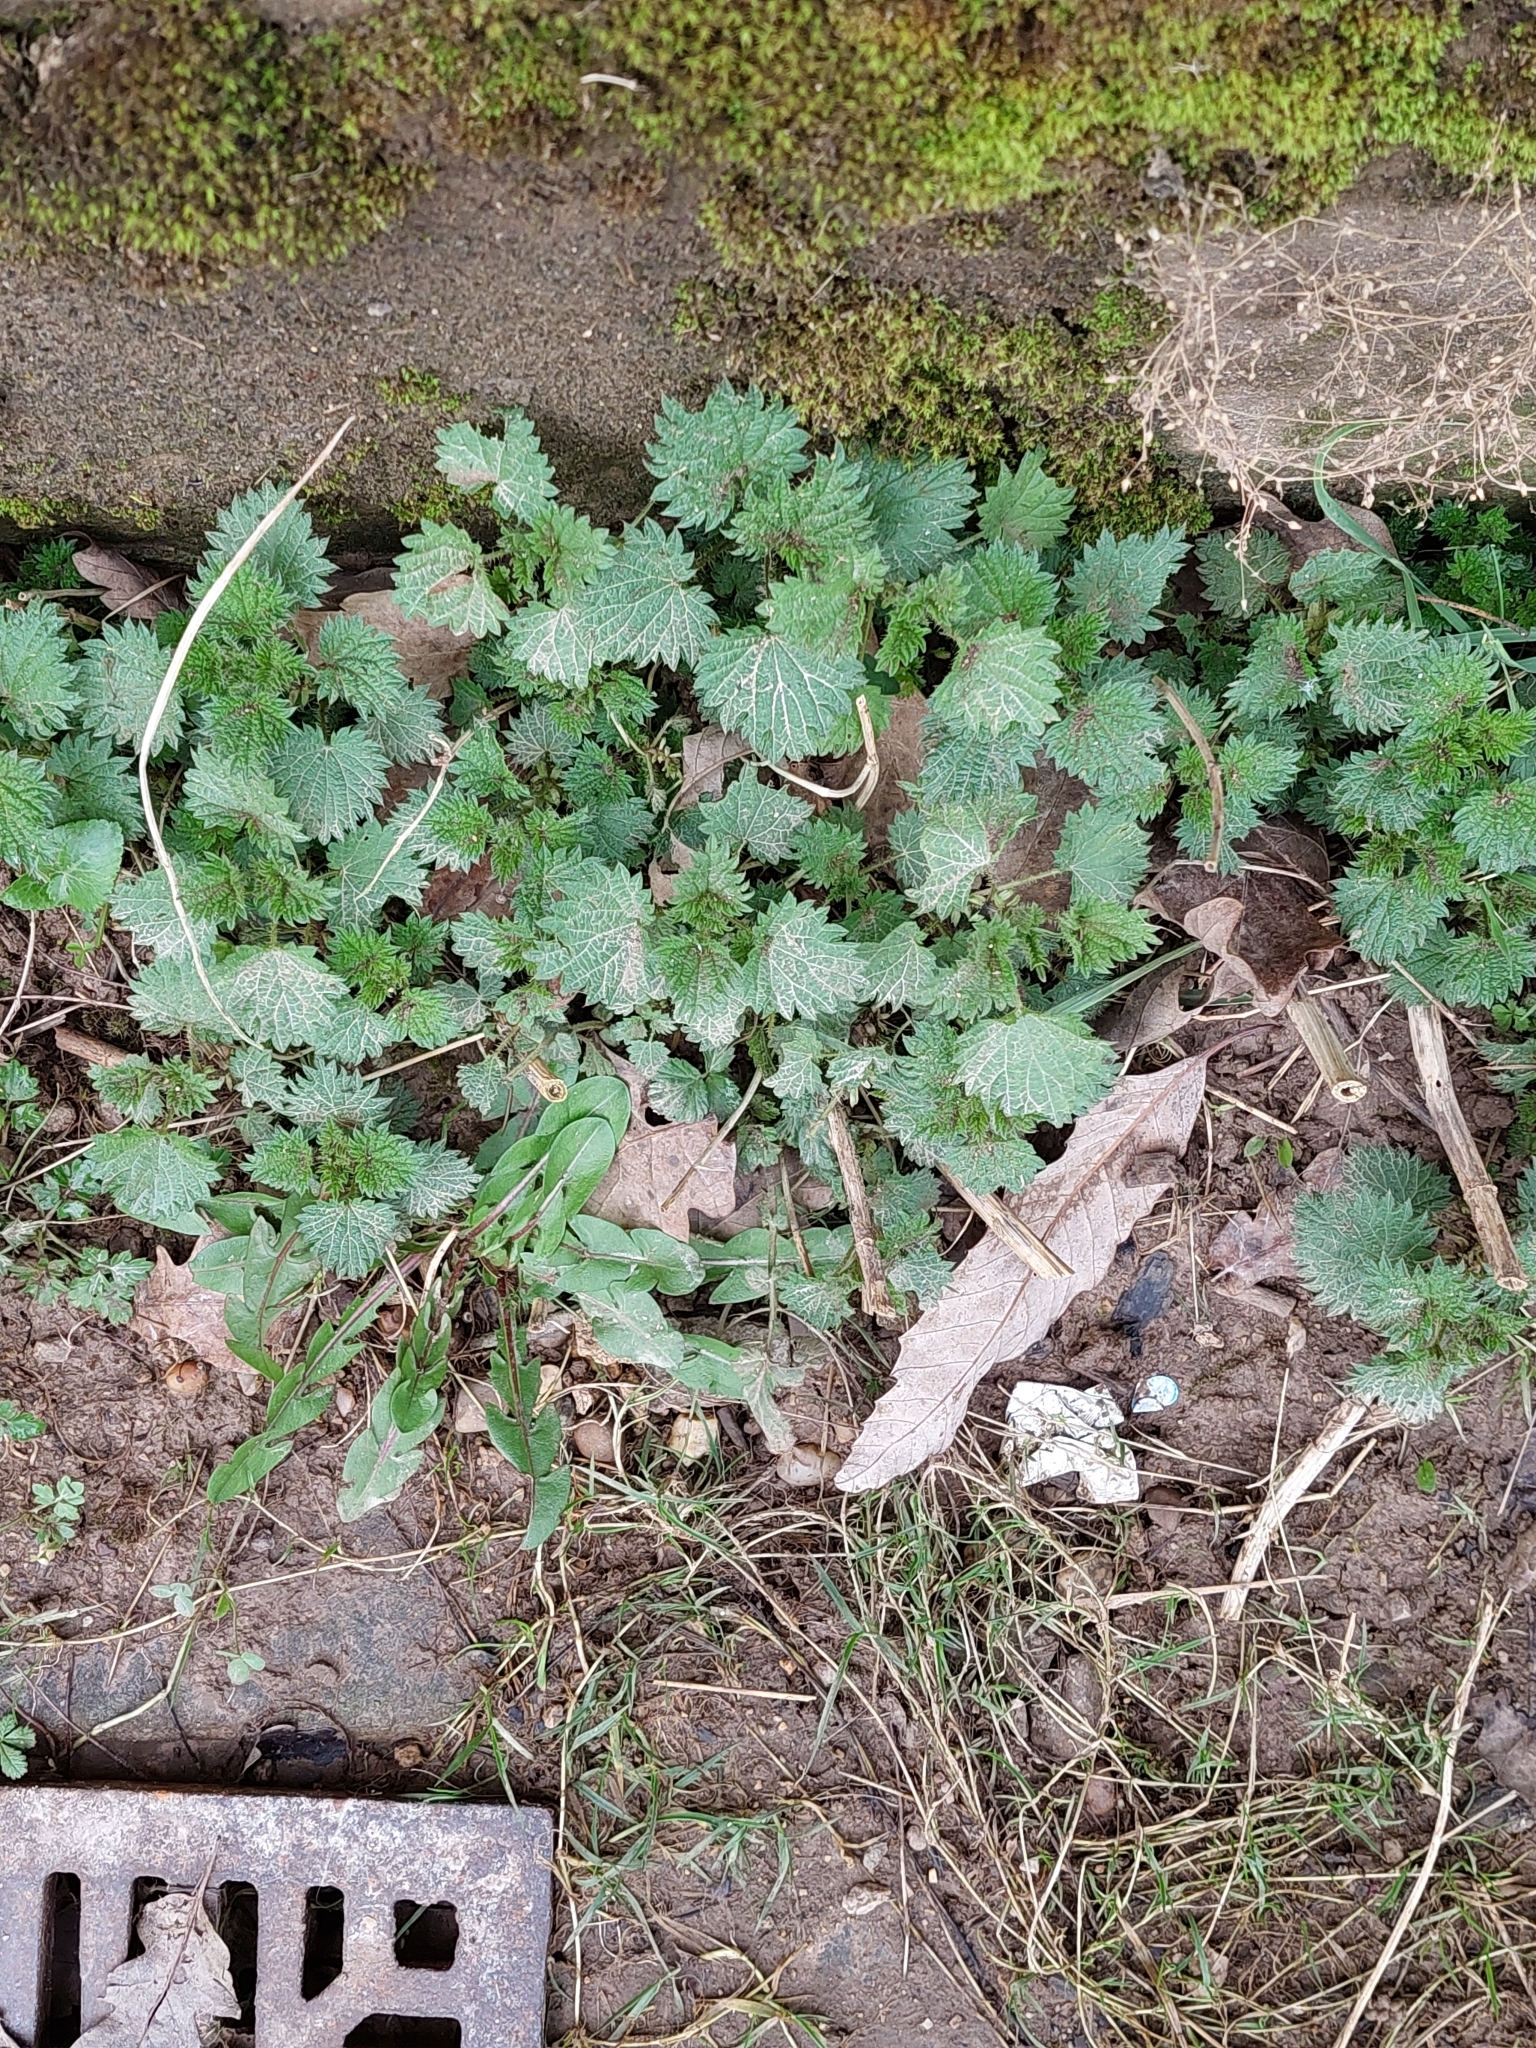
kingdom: Plantae
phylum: Tracheophyta
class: Magnoliopsida
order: Rosales
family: Urticaceae
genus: Urtica
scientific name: Urtica dioica
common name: Common nettle
